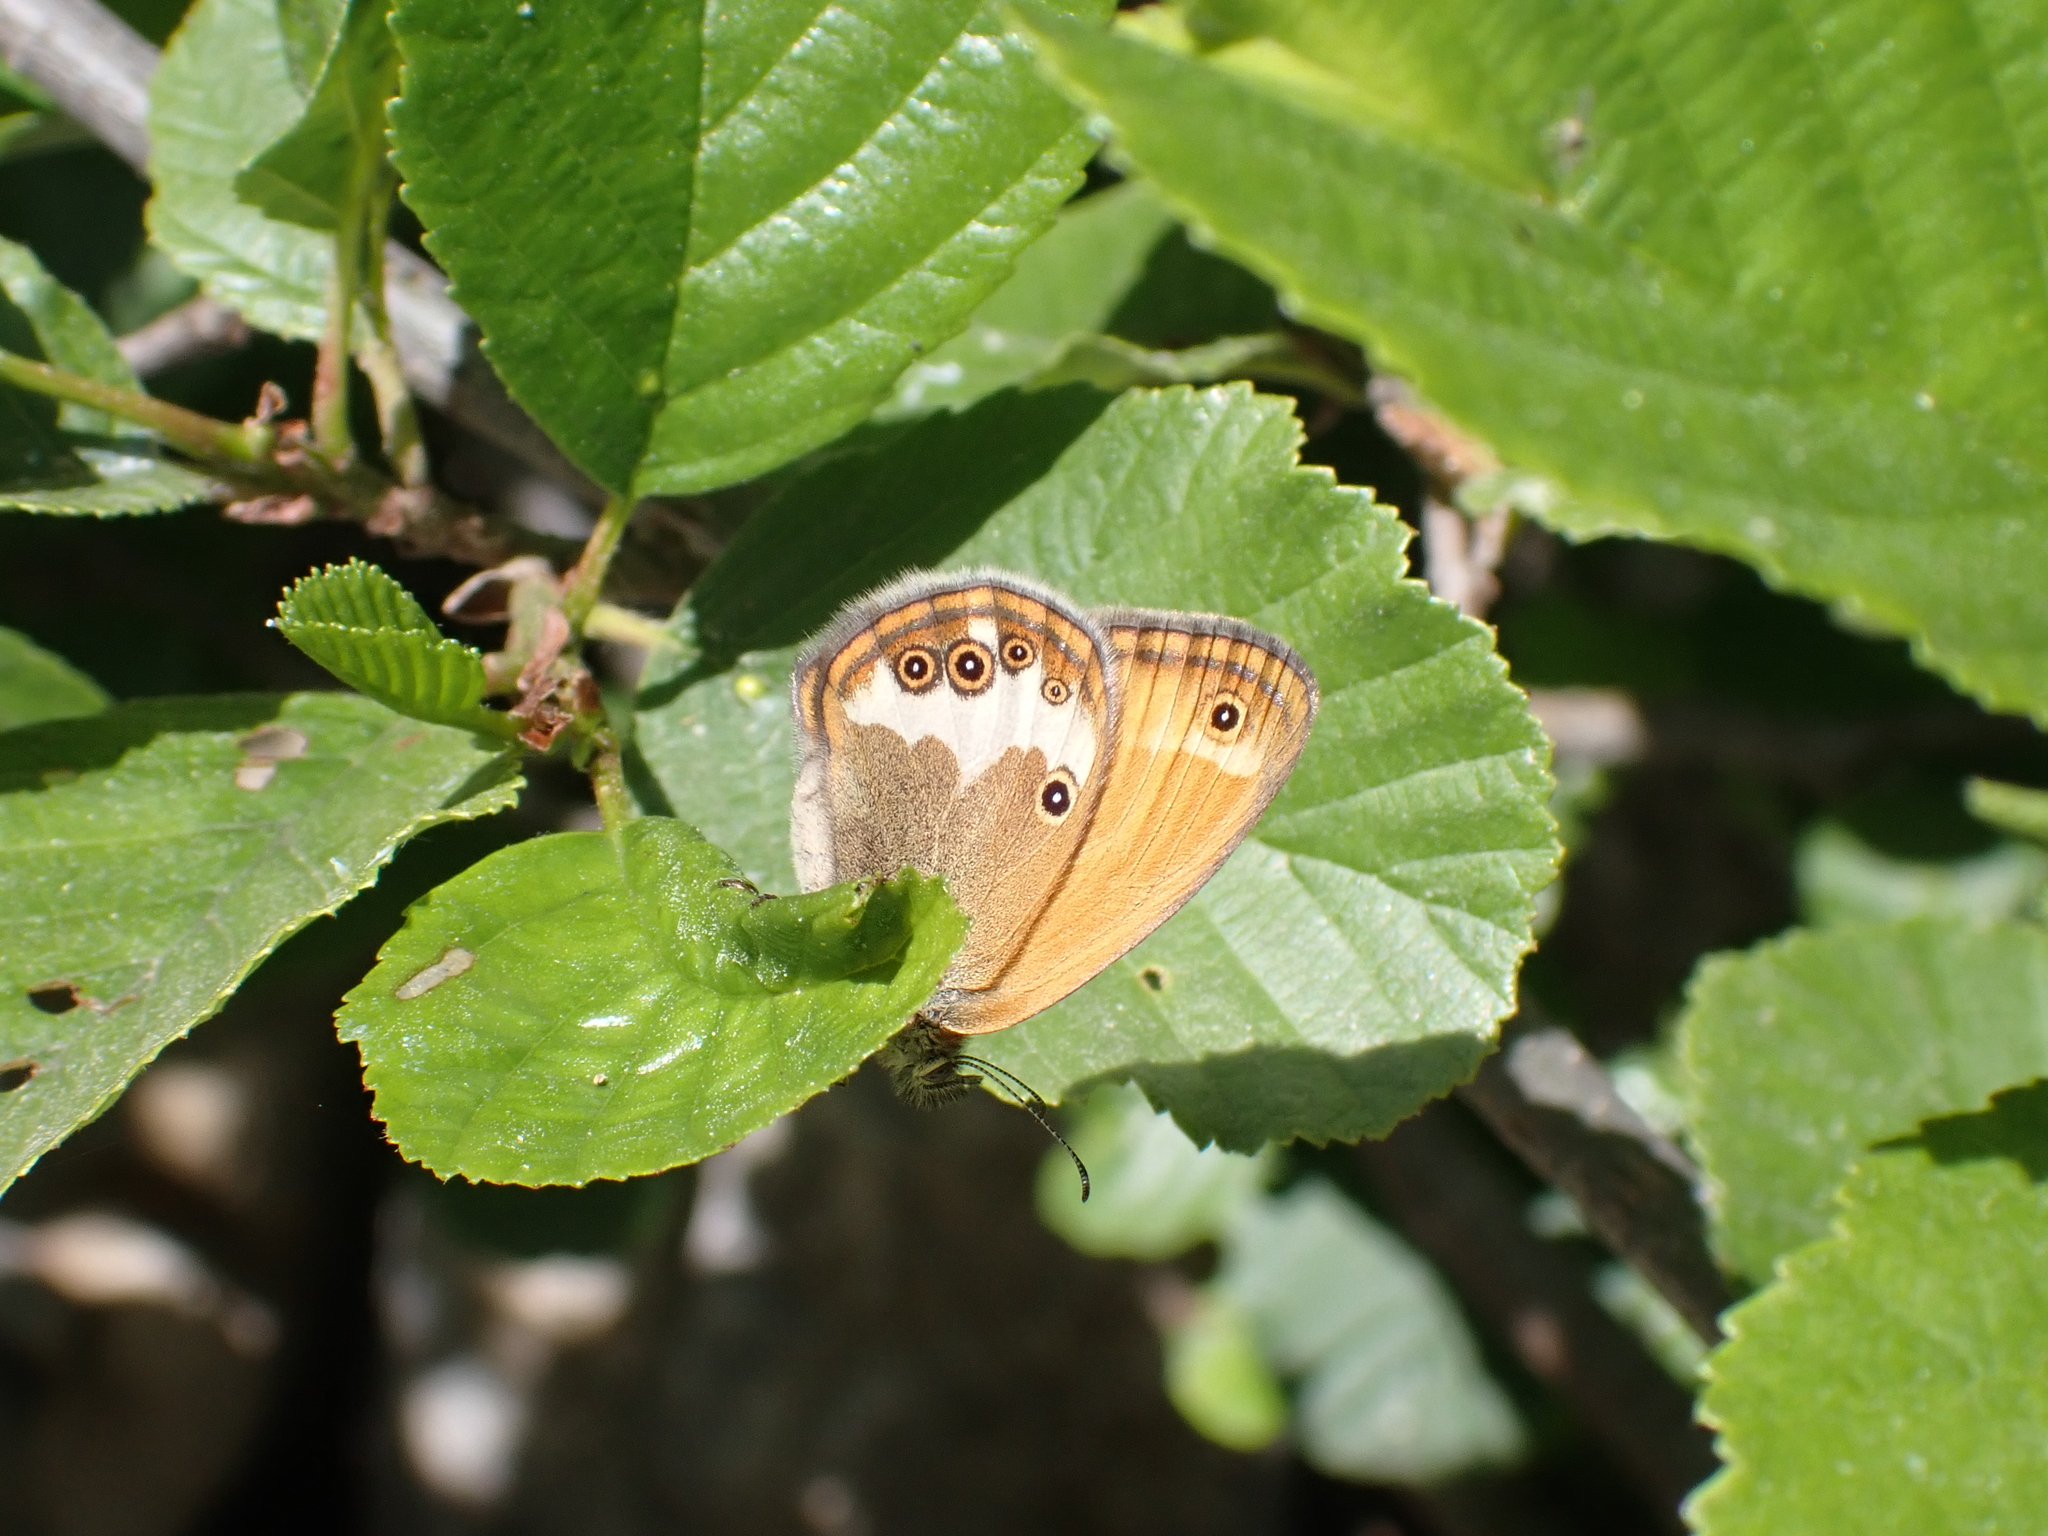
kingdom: Animalia
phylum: Arthropoda
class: Insecta
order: Lepidoptera
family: Nymphalidae
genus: Coenonympha
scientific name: Coenonympha arcania
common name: Pearly heath
